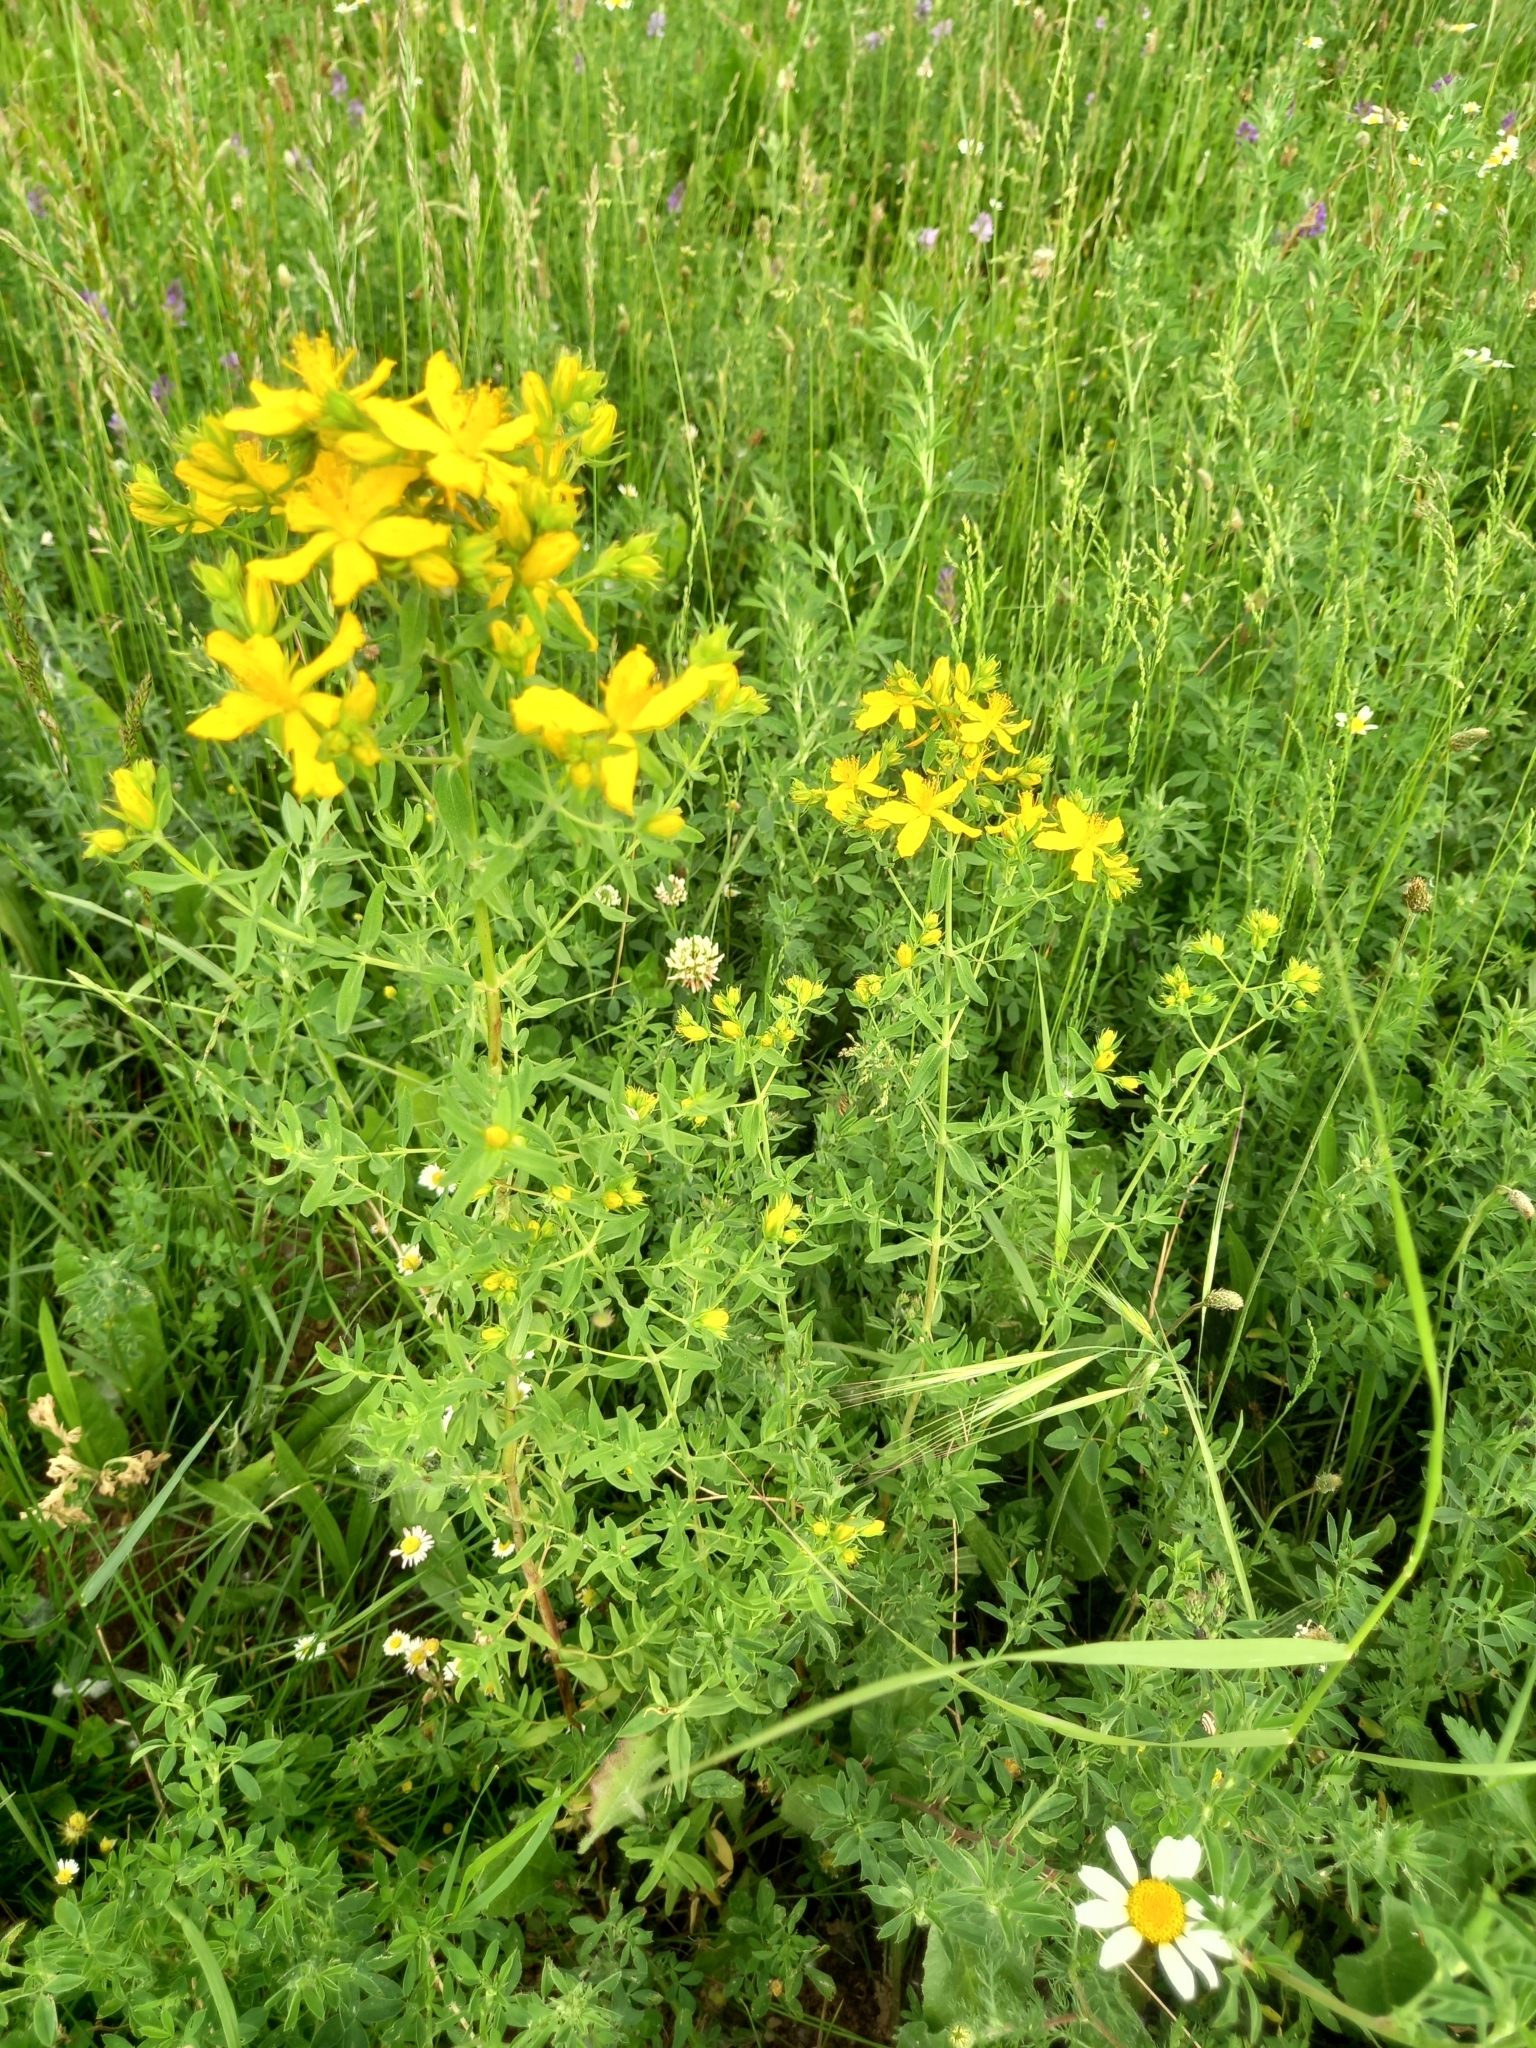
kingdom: Plantae
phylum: Tracheophyta
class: Magnoliopsida
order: Malpighiales
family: Hypericaceae
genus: Hypericum
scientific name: Hypericum perforatum
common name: Common st. johnswort
